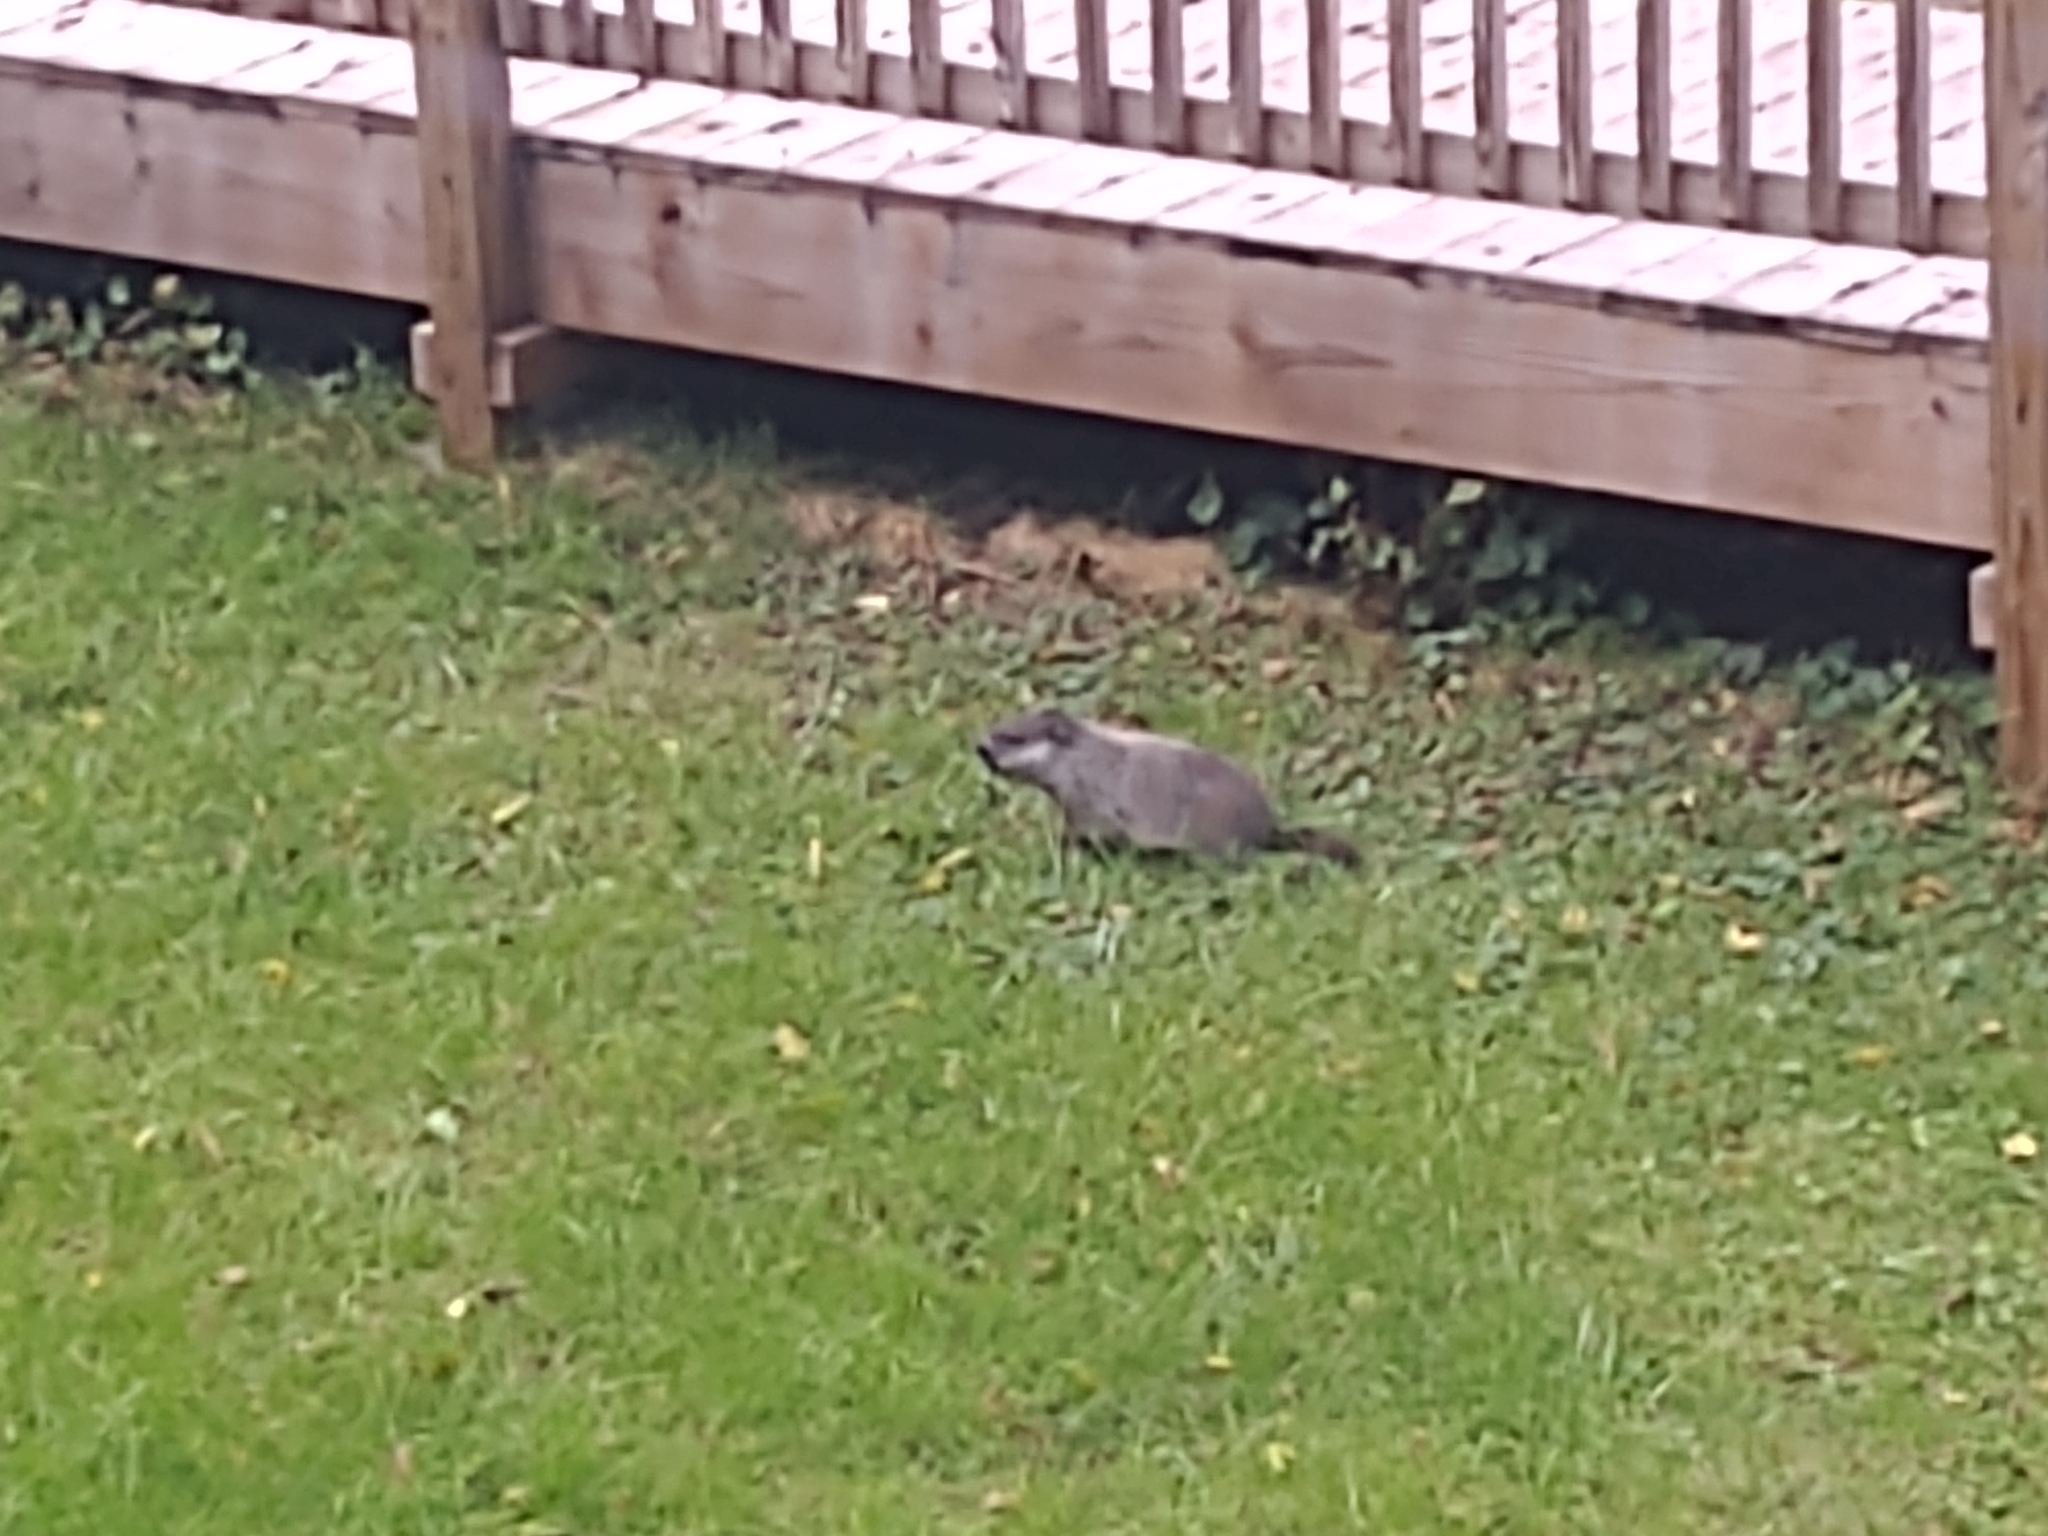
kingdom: Animalia
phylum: Chordata
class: Mammalia
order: Rodentia
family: Sciuridae
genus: Marmota
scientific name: Marmota monax
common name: Groundhog
